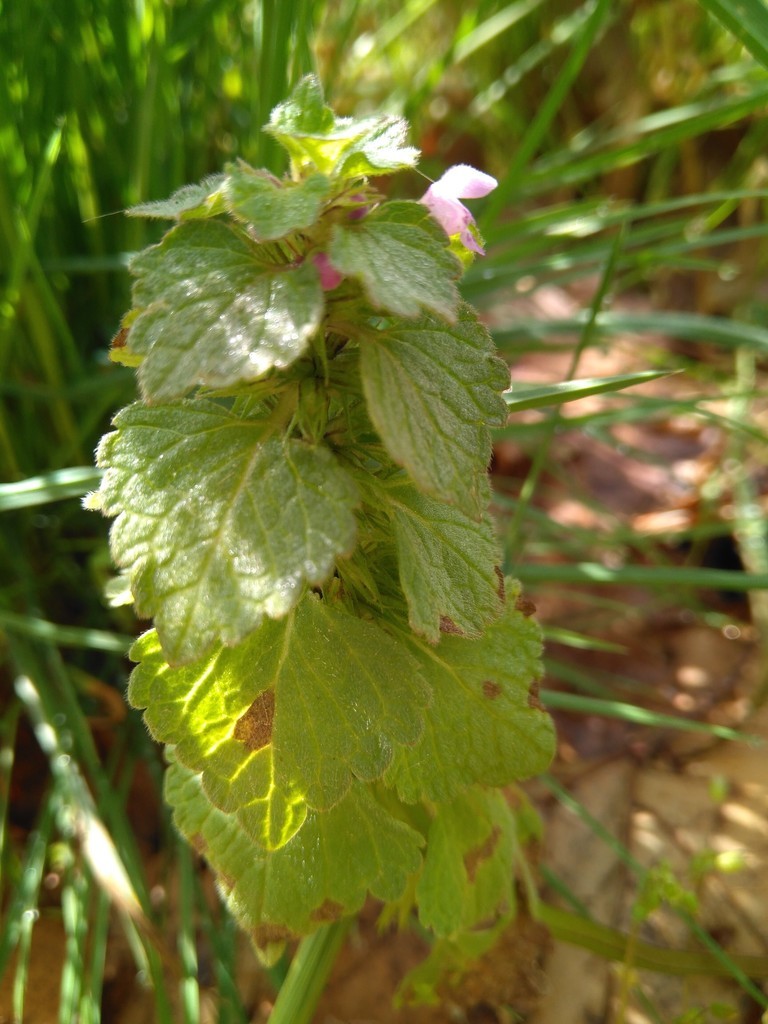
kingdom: Plantae
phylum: Tracheophyta
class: Magnoliopsida
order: Lamiales
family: Lamiaceae
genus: Lamium
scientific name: Lamium purpureum
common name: Red dead-nettle
